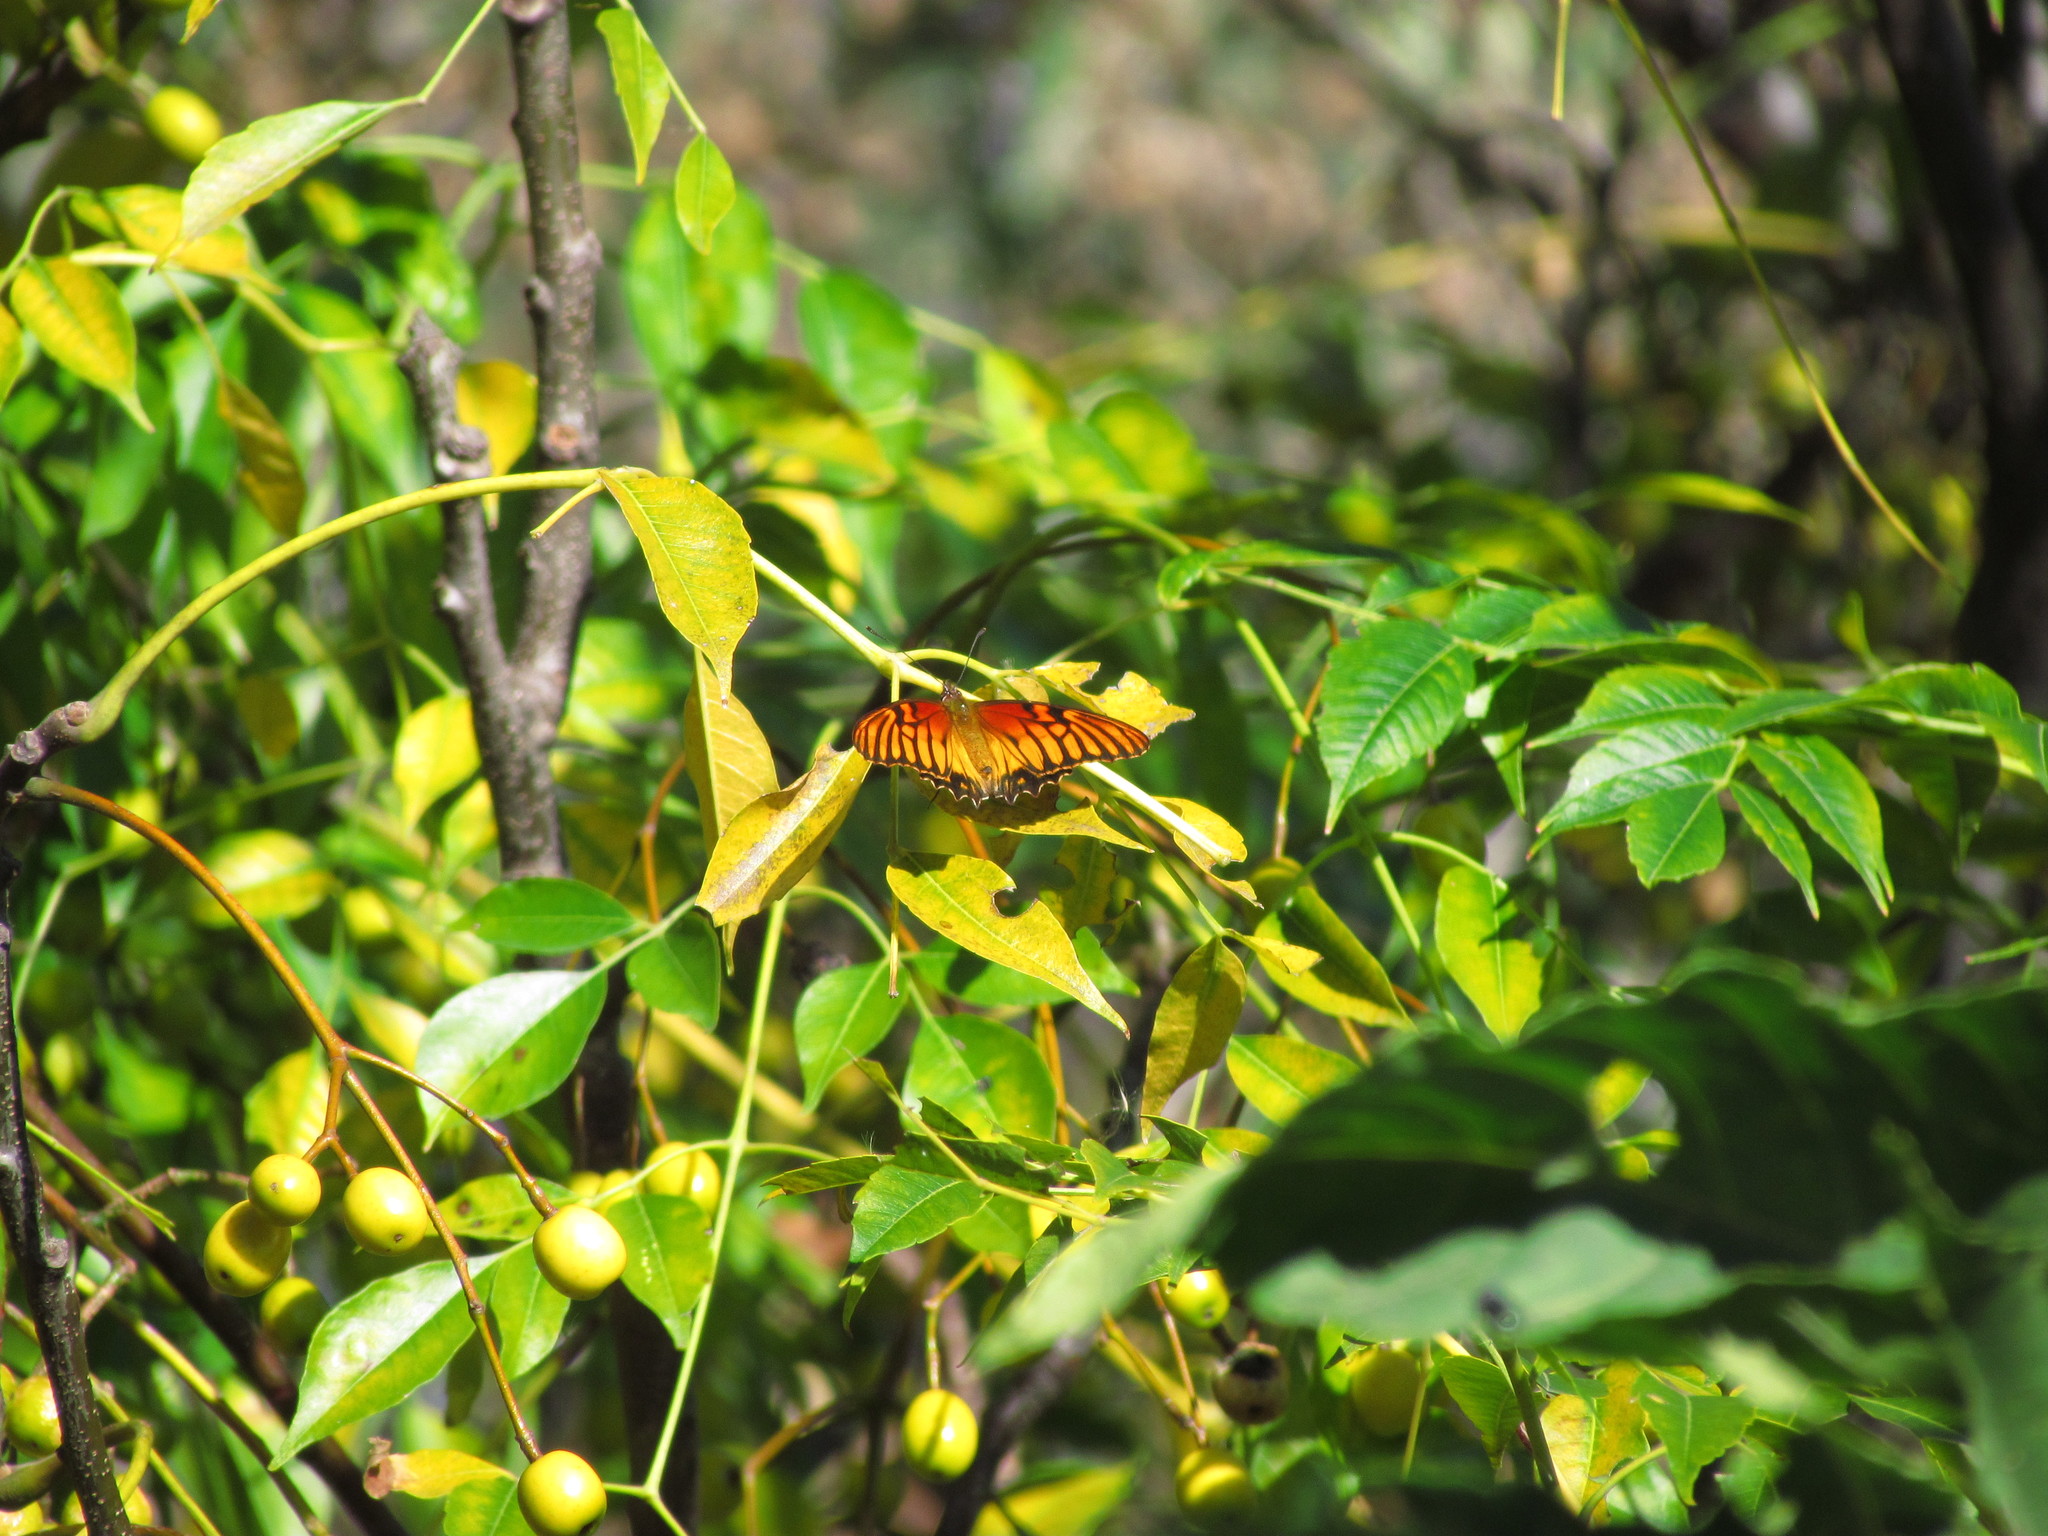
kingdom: Animalia
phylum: Arthropoda
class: Insecta
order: Lepidoptera
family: Nymphalidae
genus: Dione
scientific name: Dione moneta
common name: Mexican silverspot
